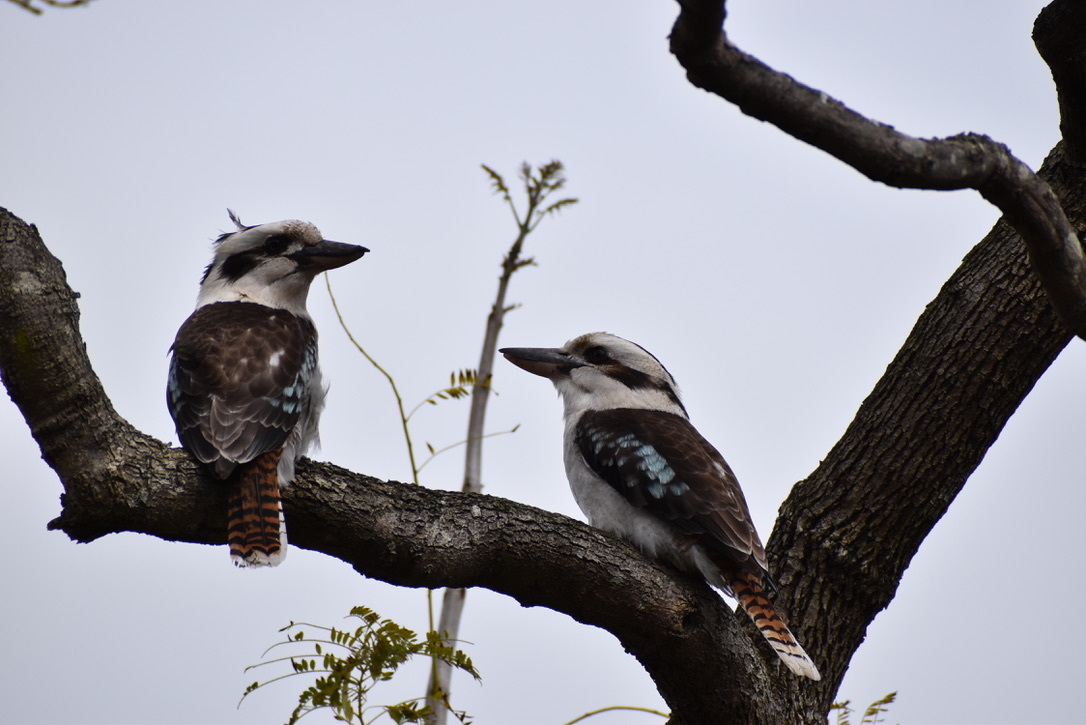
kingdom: Animalia
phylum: Chordata
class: Aves
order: Coraciiformes
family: Alcedinidae
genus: Dacelo
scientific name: Dacelo novaeguineae
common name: Laughing kookaburra
